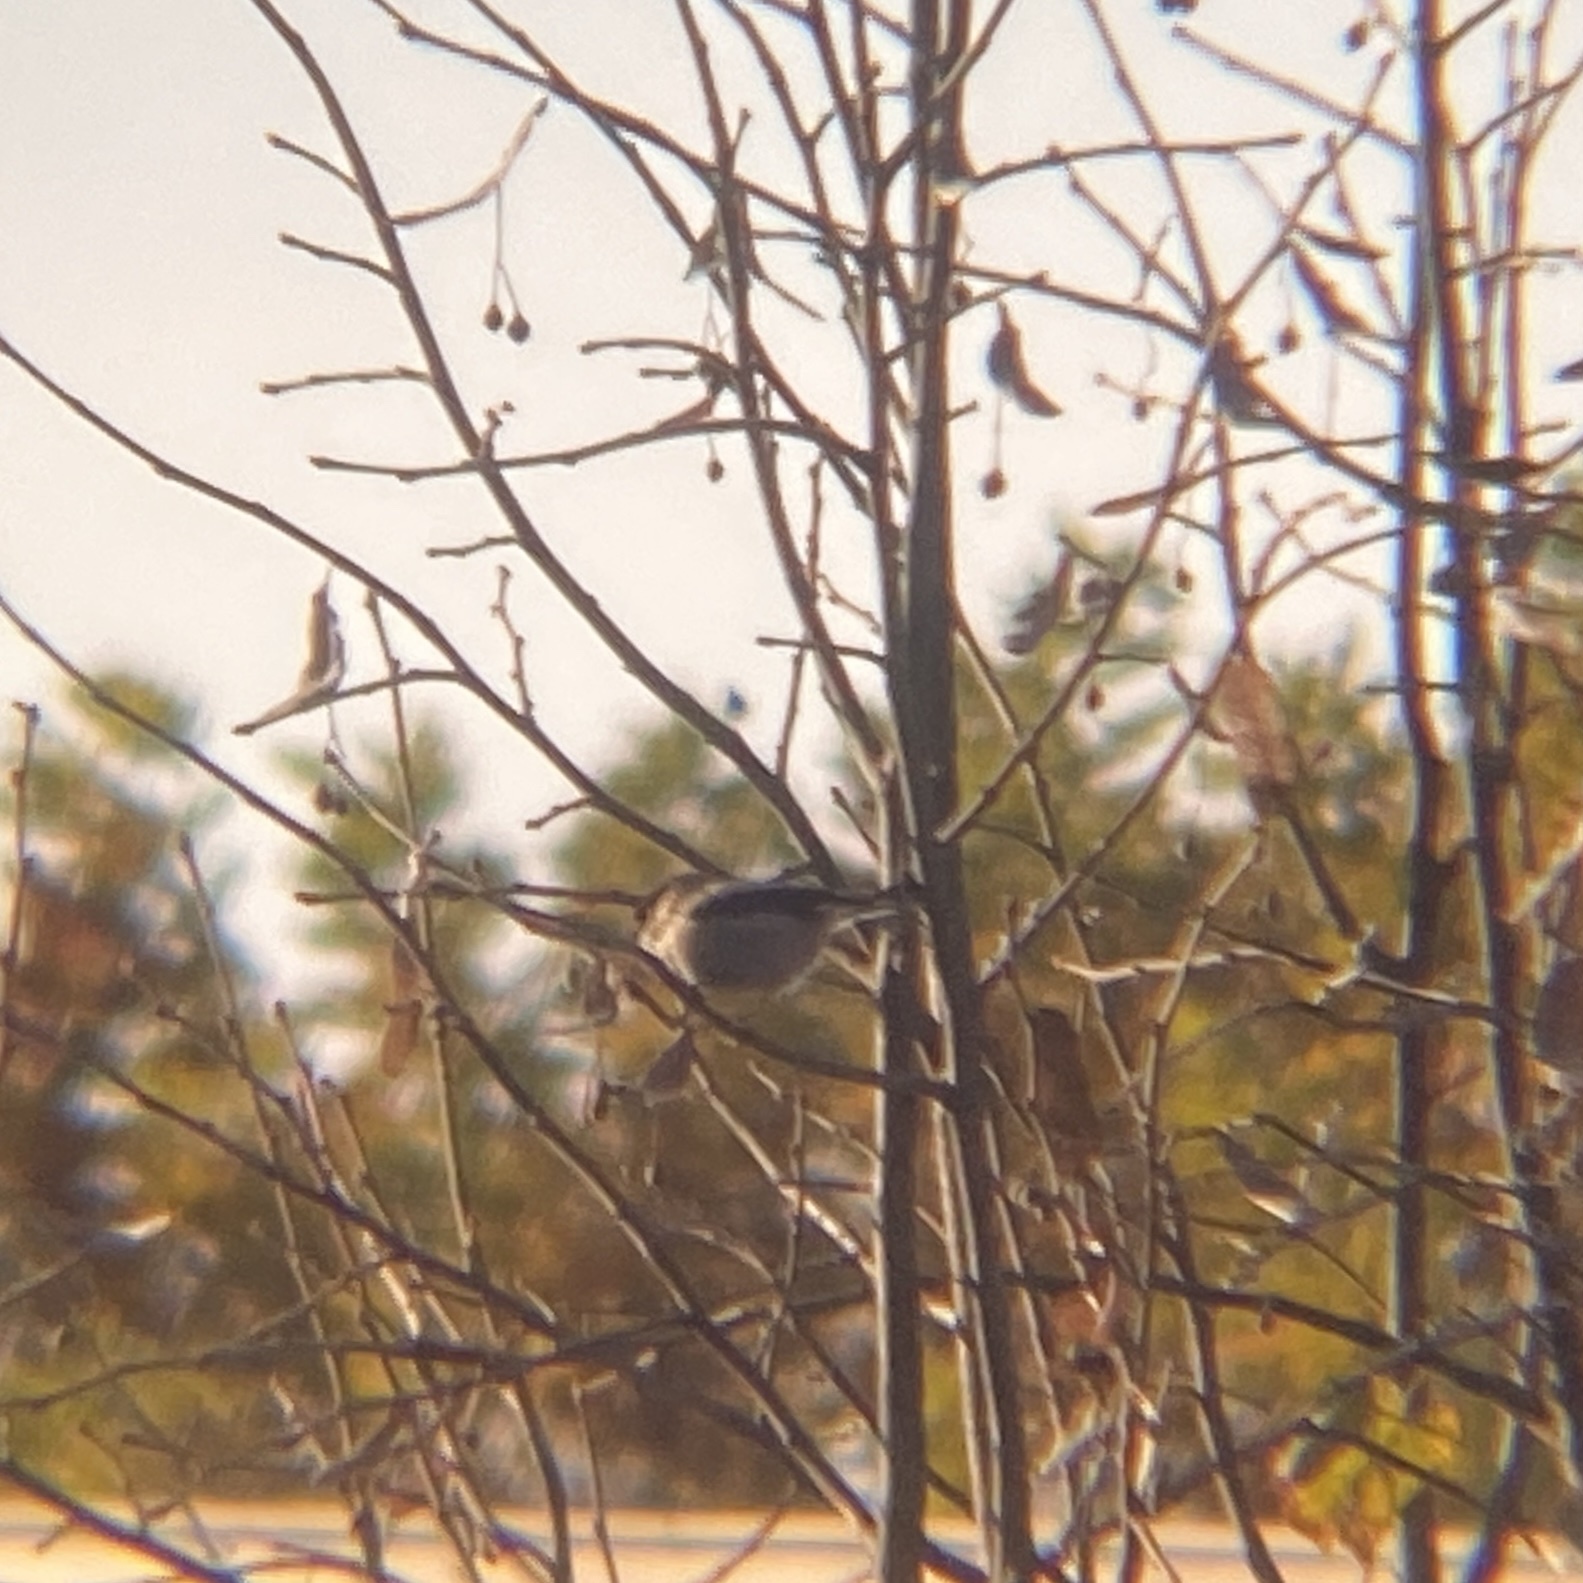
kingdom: Animalia
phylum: Chordata
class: Aves
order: Passeriformes
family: Aegithalidae
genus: Aegithalos
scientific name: Aegithalos caudatus
